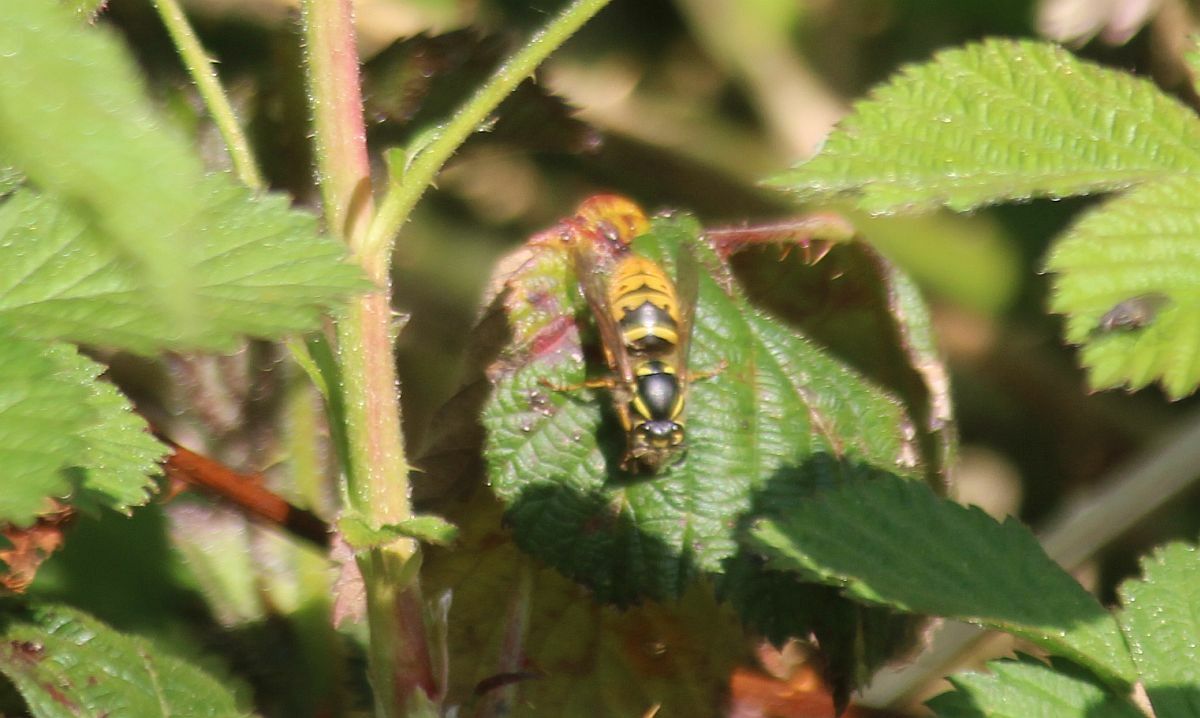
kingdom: Animalia
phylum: Arthropoda
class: Insecta
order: Hymenoptera
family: Vespidae
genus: Vespula
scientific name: Vespula vulgaris
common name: Common wasp
